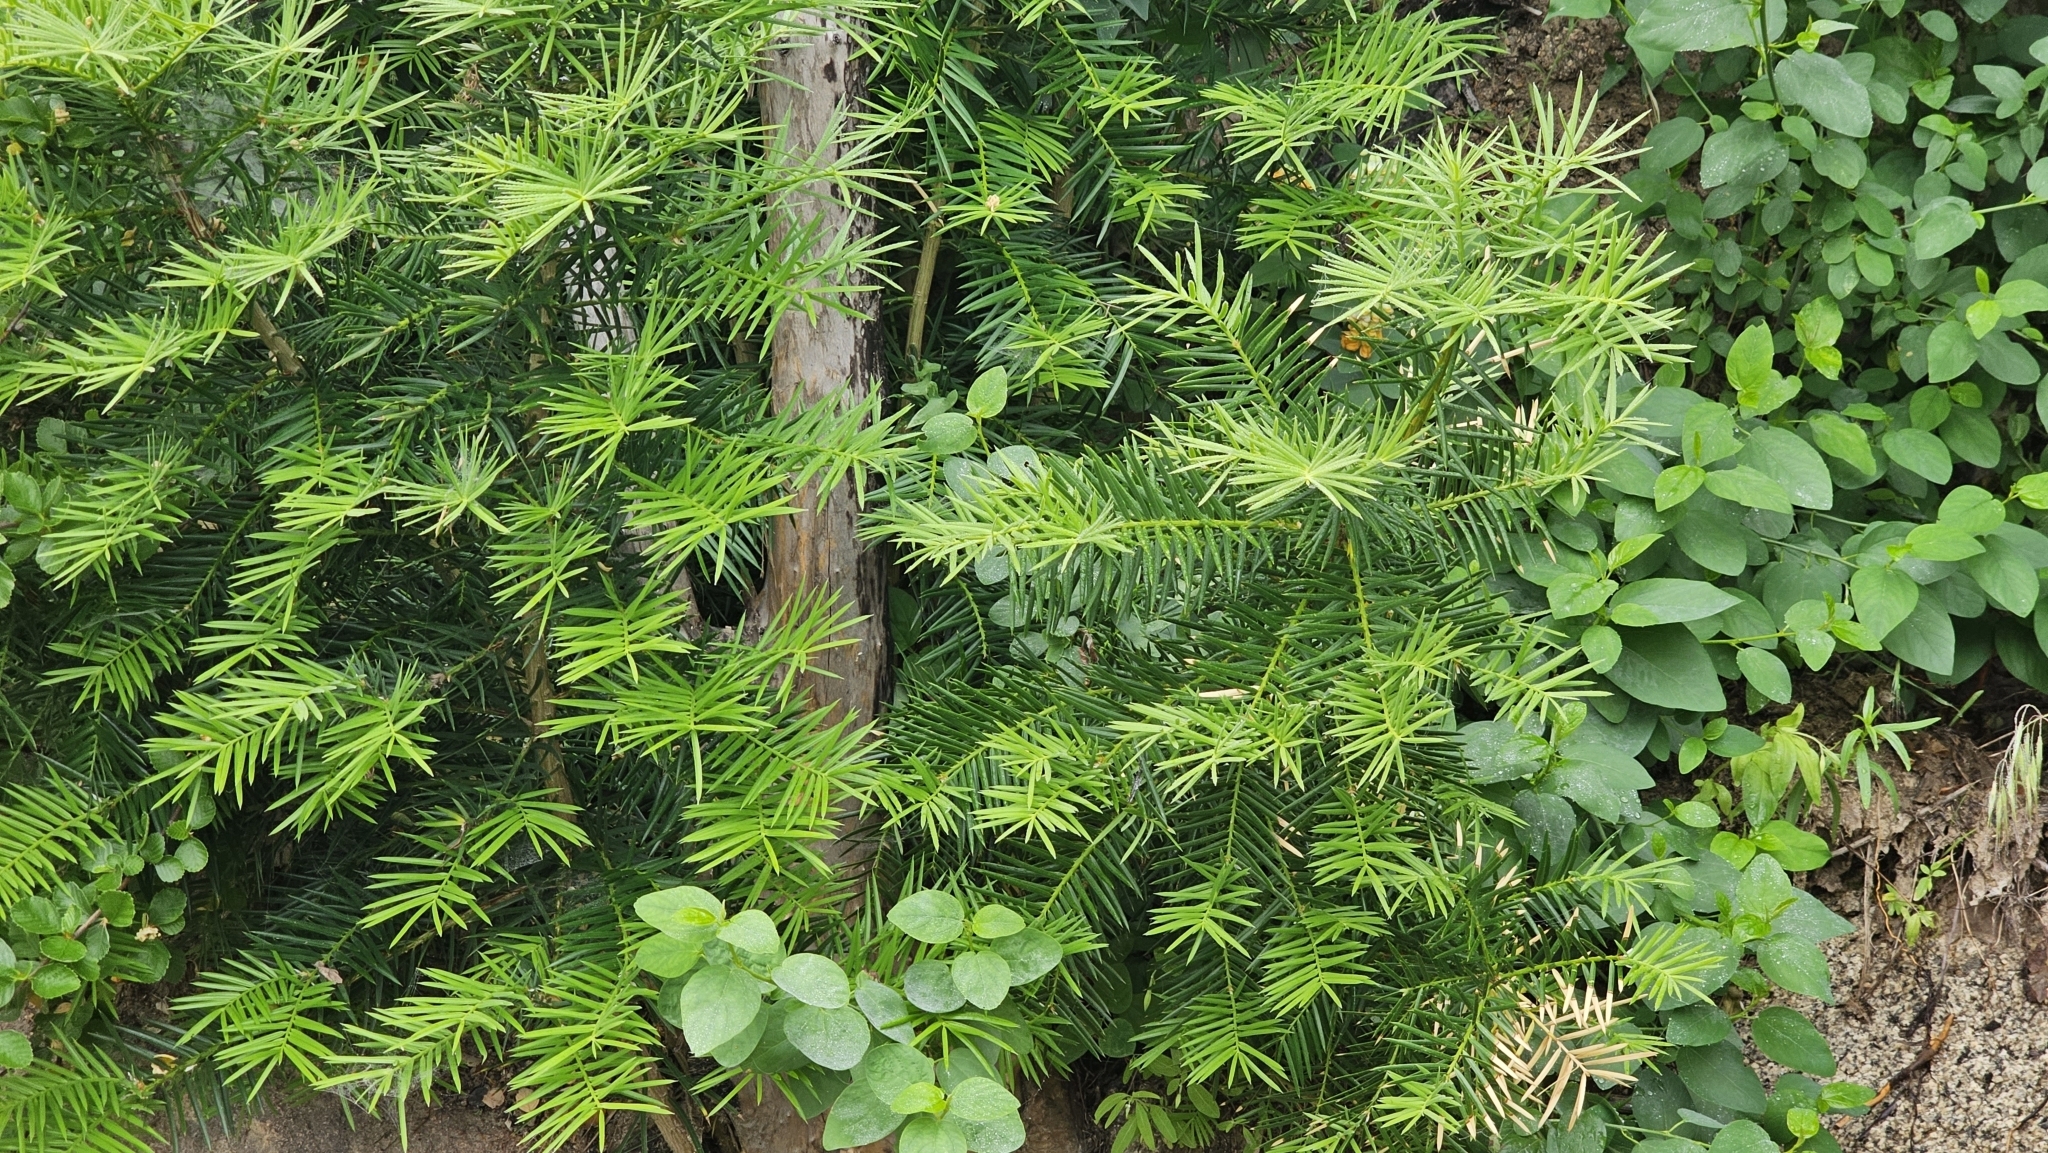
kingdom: Plantae
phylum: Tracheophyta
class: Pinopsida
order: Pinales
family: Taxaceae
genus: Torreya
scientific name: Torreya californica
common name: California torreya
